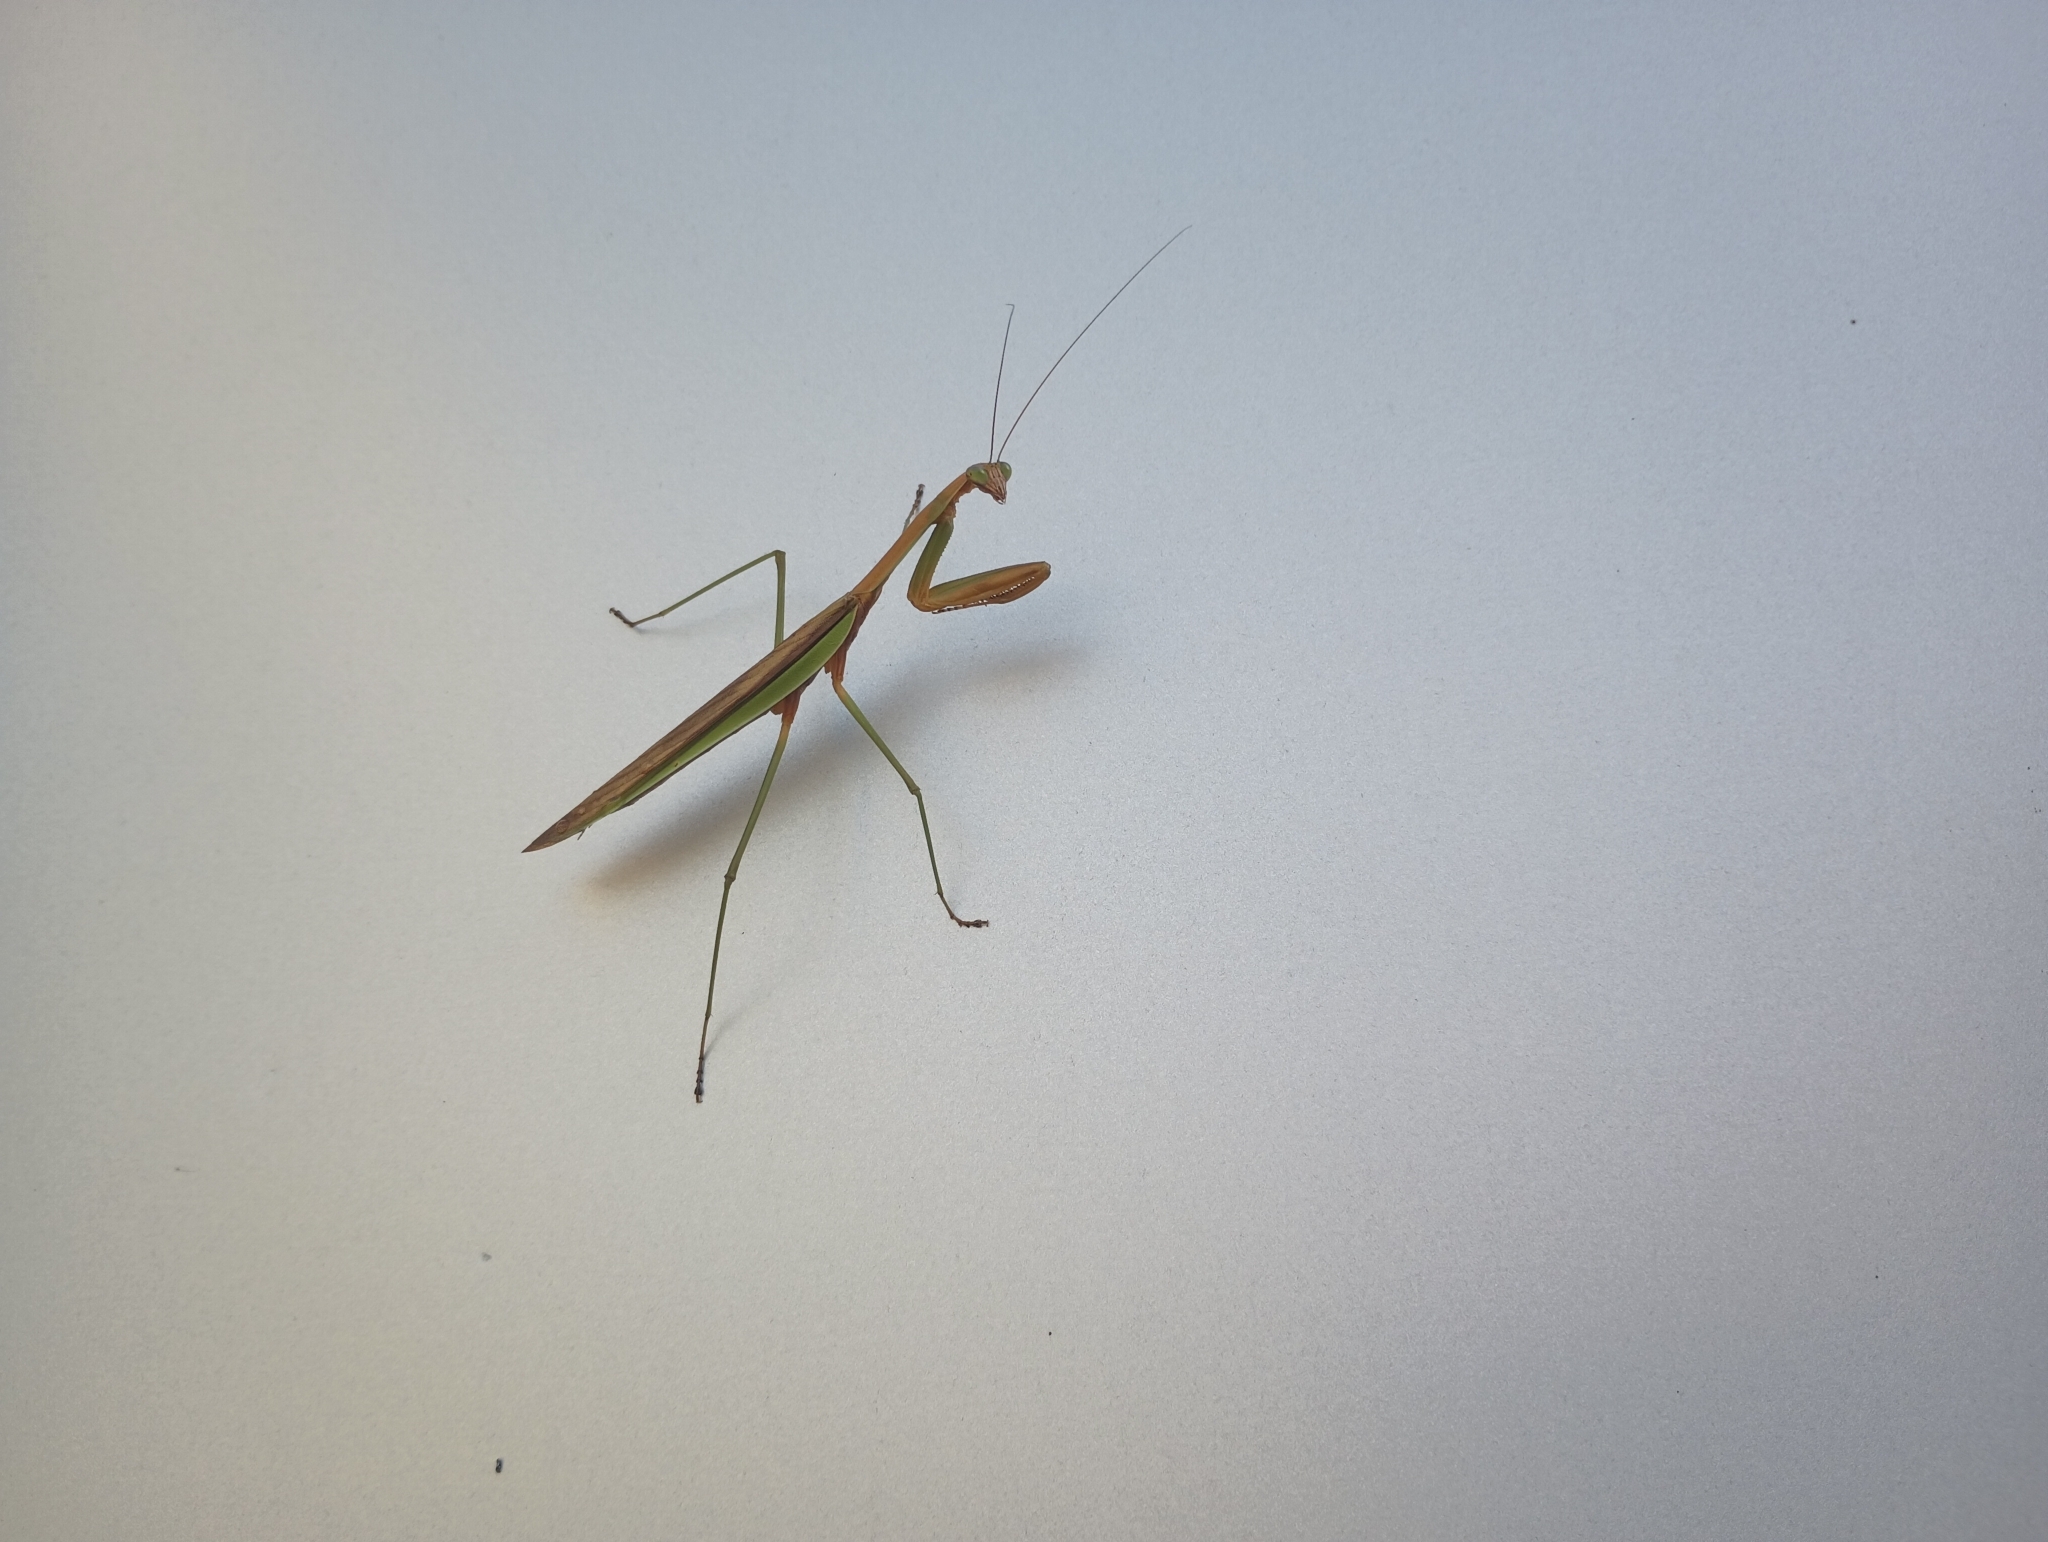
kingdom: Animalia
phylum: Arthropoda
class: Insecta
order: Mantodea
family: Mantidae
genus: Tenodera
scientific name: Tenodera sinensis
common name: Chinese mantis
